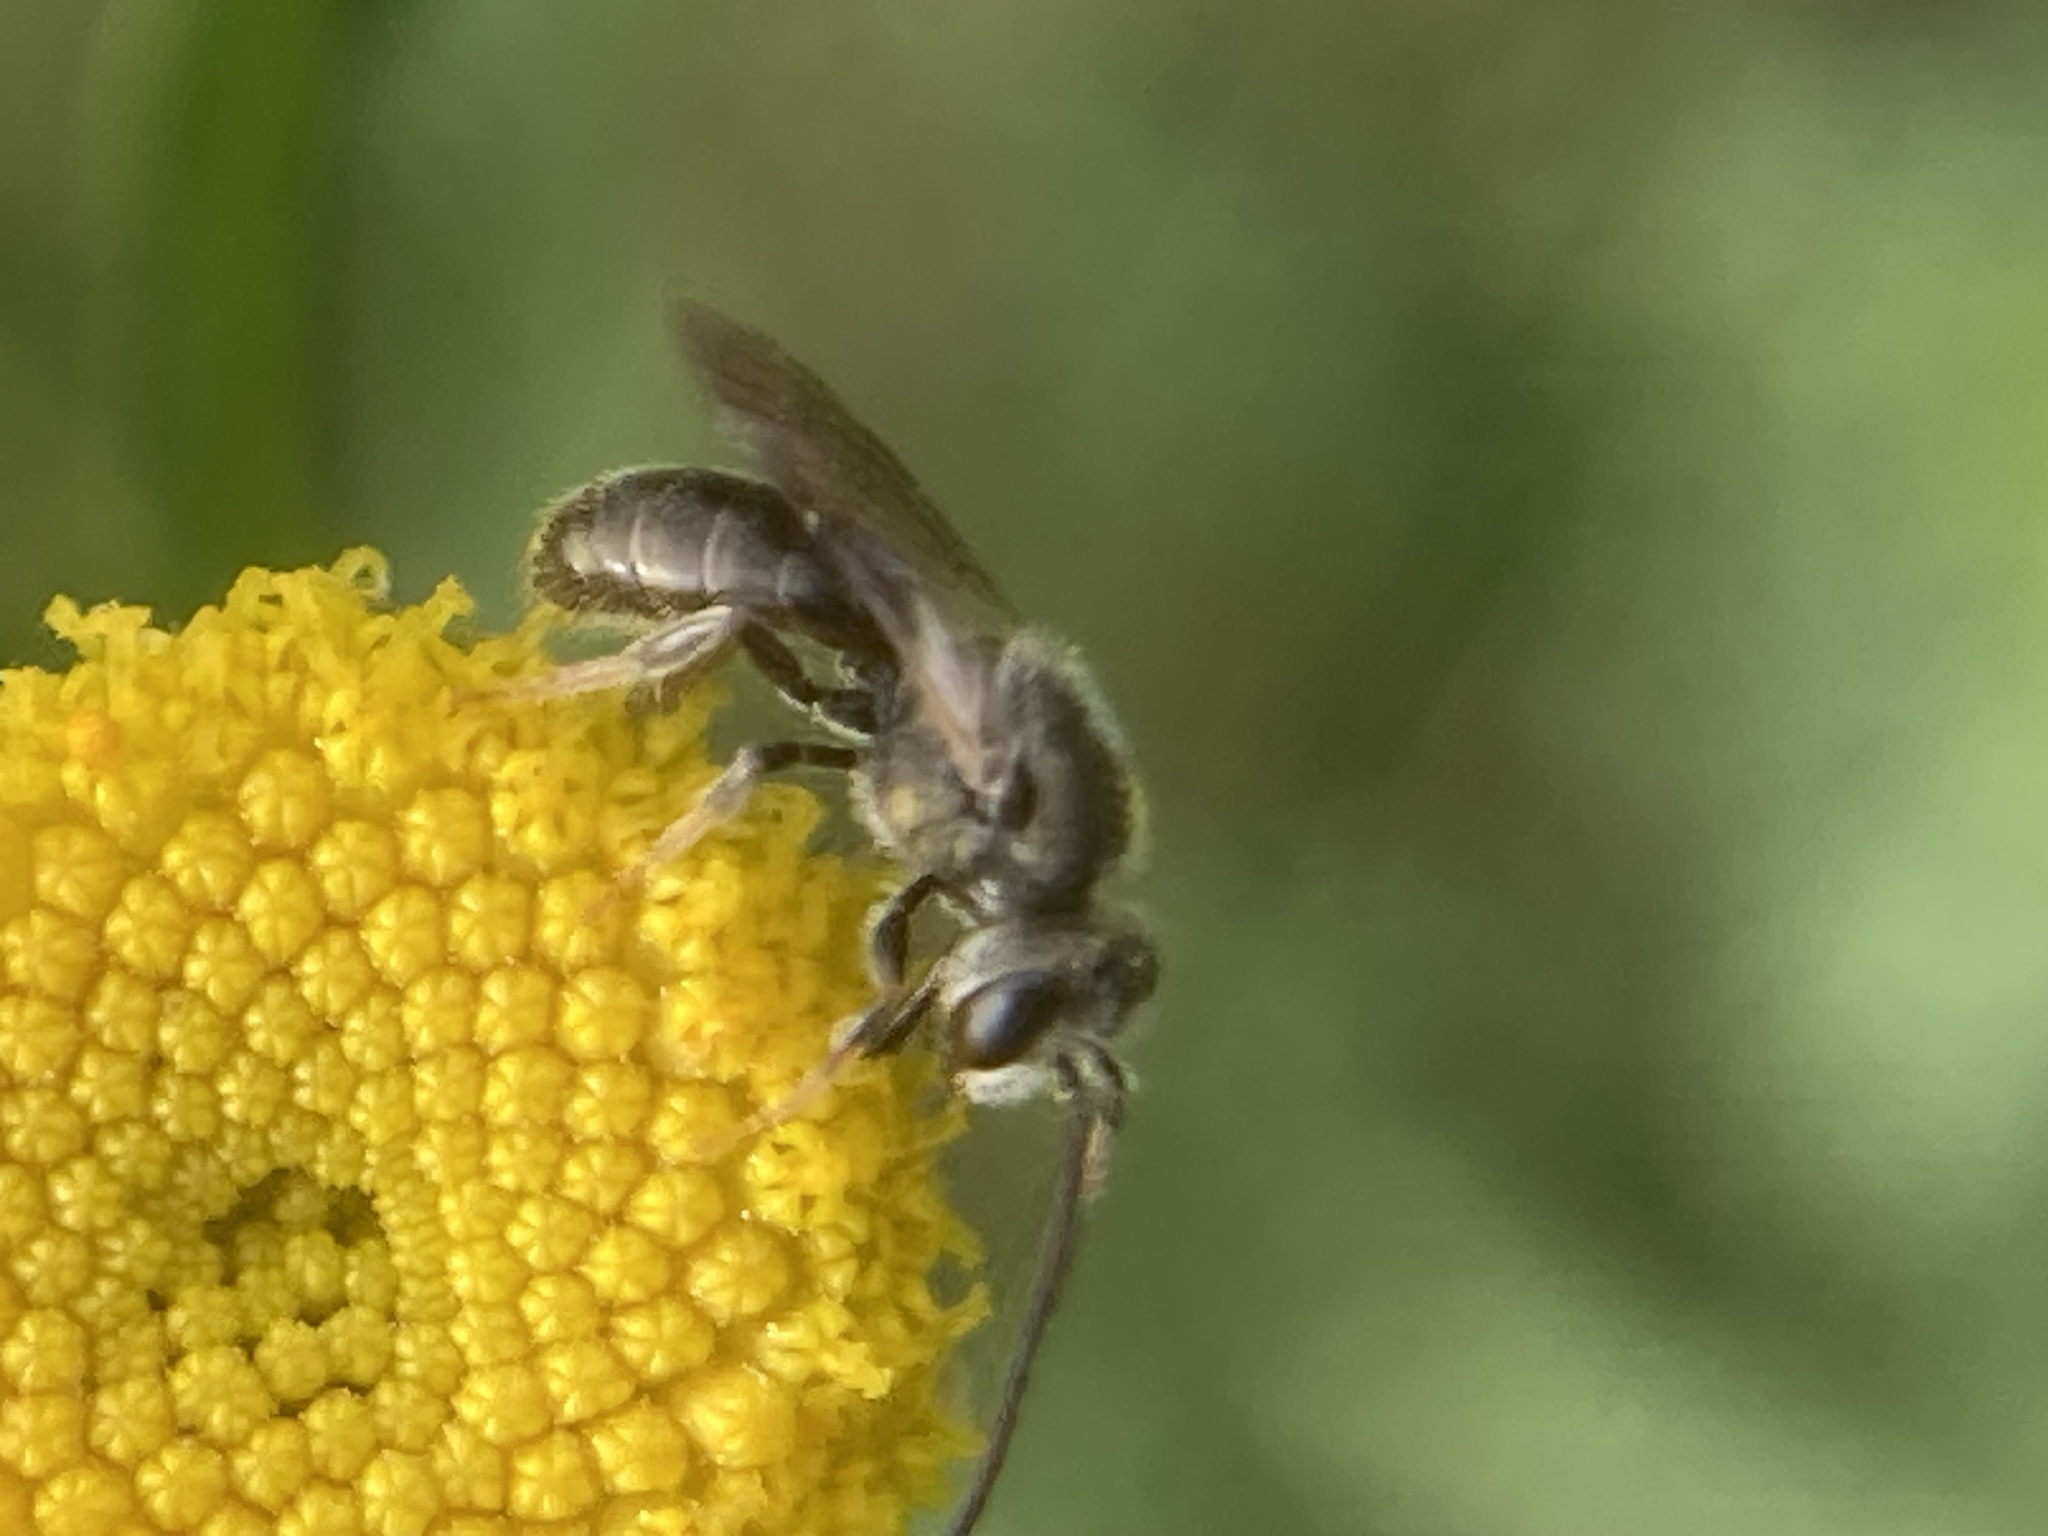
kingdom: Animalia
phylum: Arthropoda
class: Insecta
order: Hymenoptera
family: Halictidae
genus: Dialictus
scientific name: Dialictus
